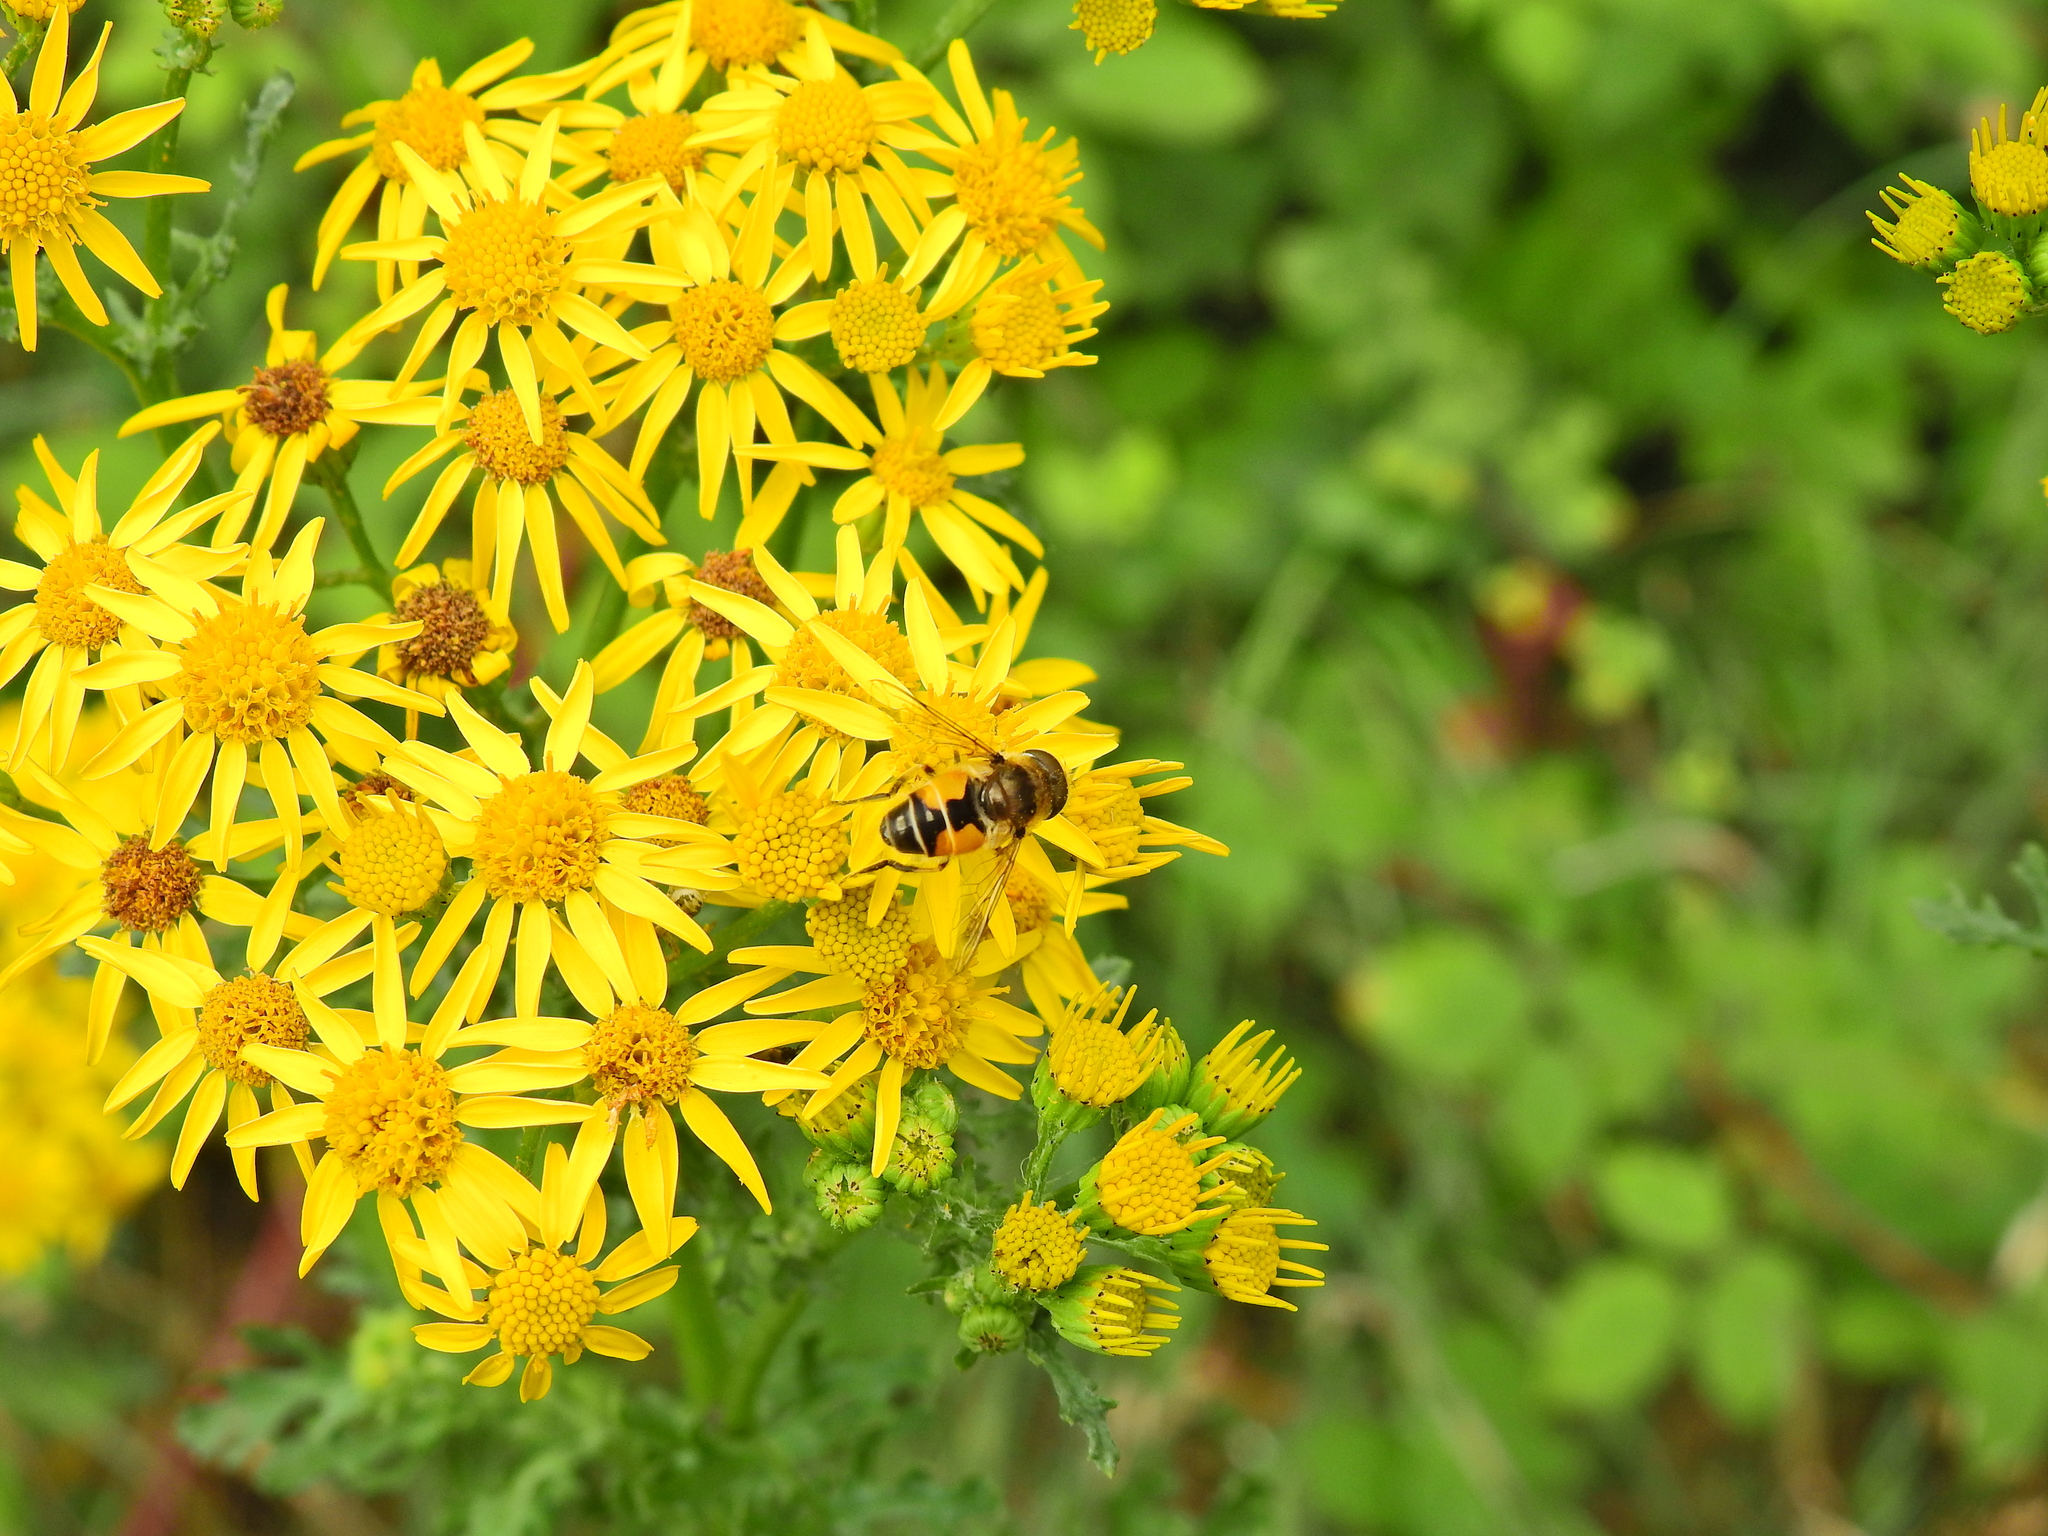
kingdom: Animalia
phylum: Arthropoda
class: Insecta
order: Diptera
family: Syrphidae
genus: Eristalis
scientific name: Eristalis arbustorum
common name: Hover fly
